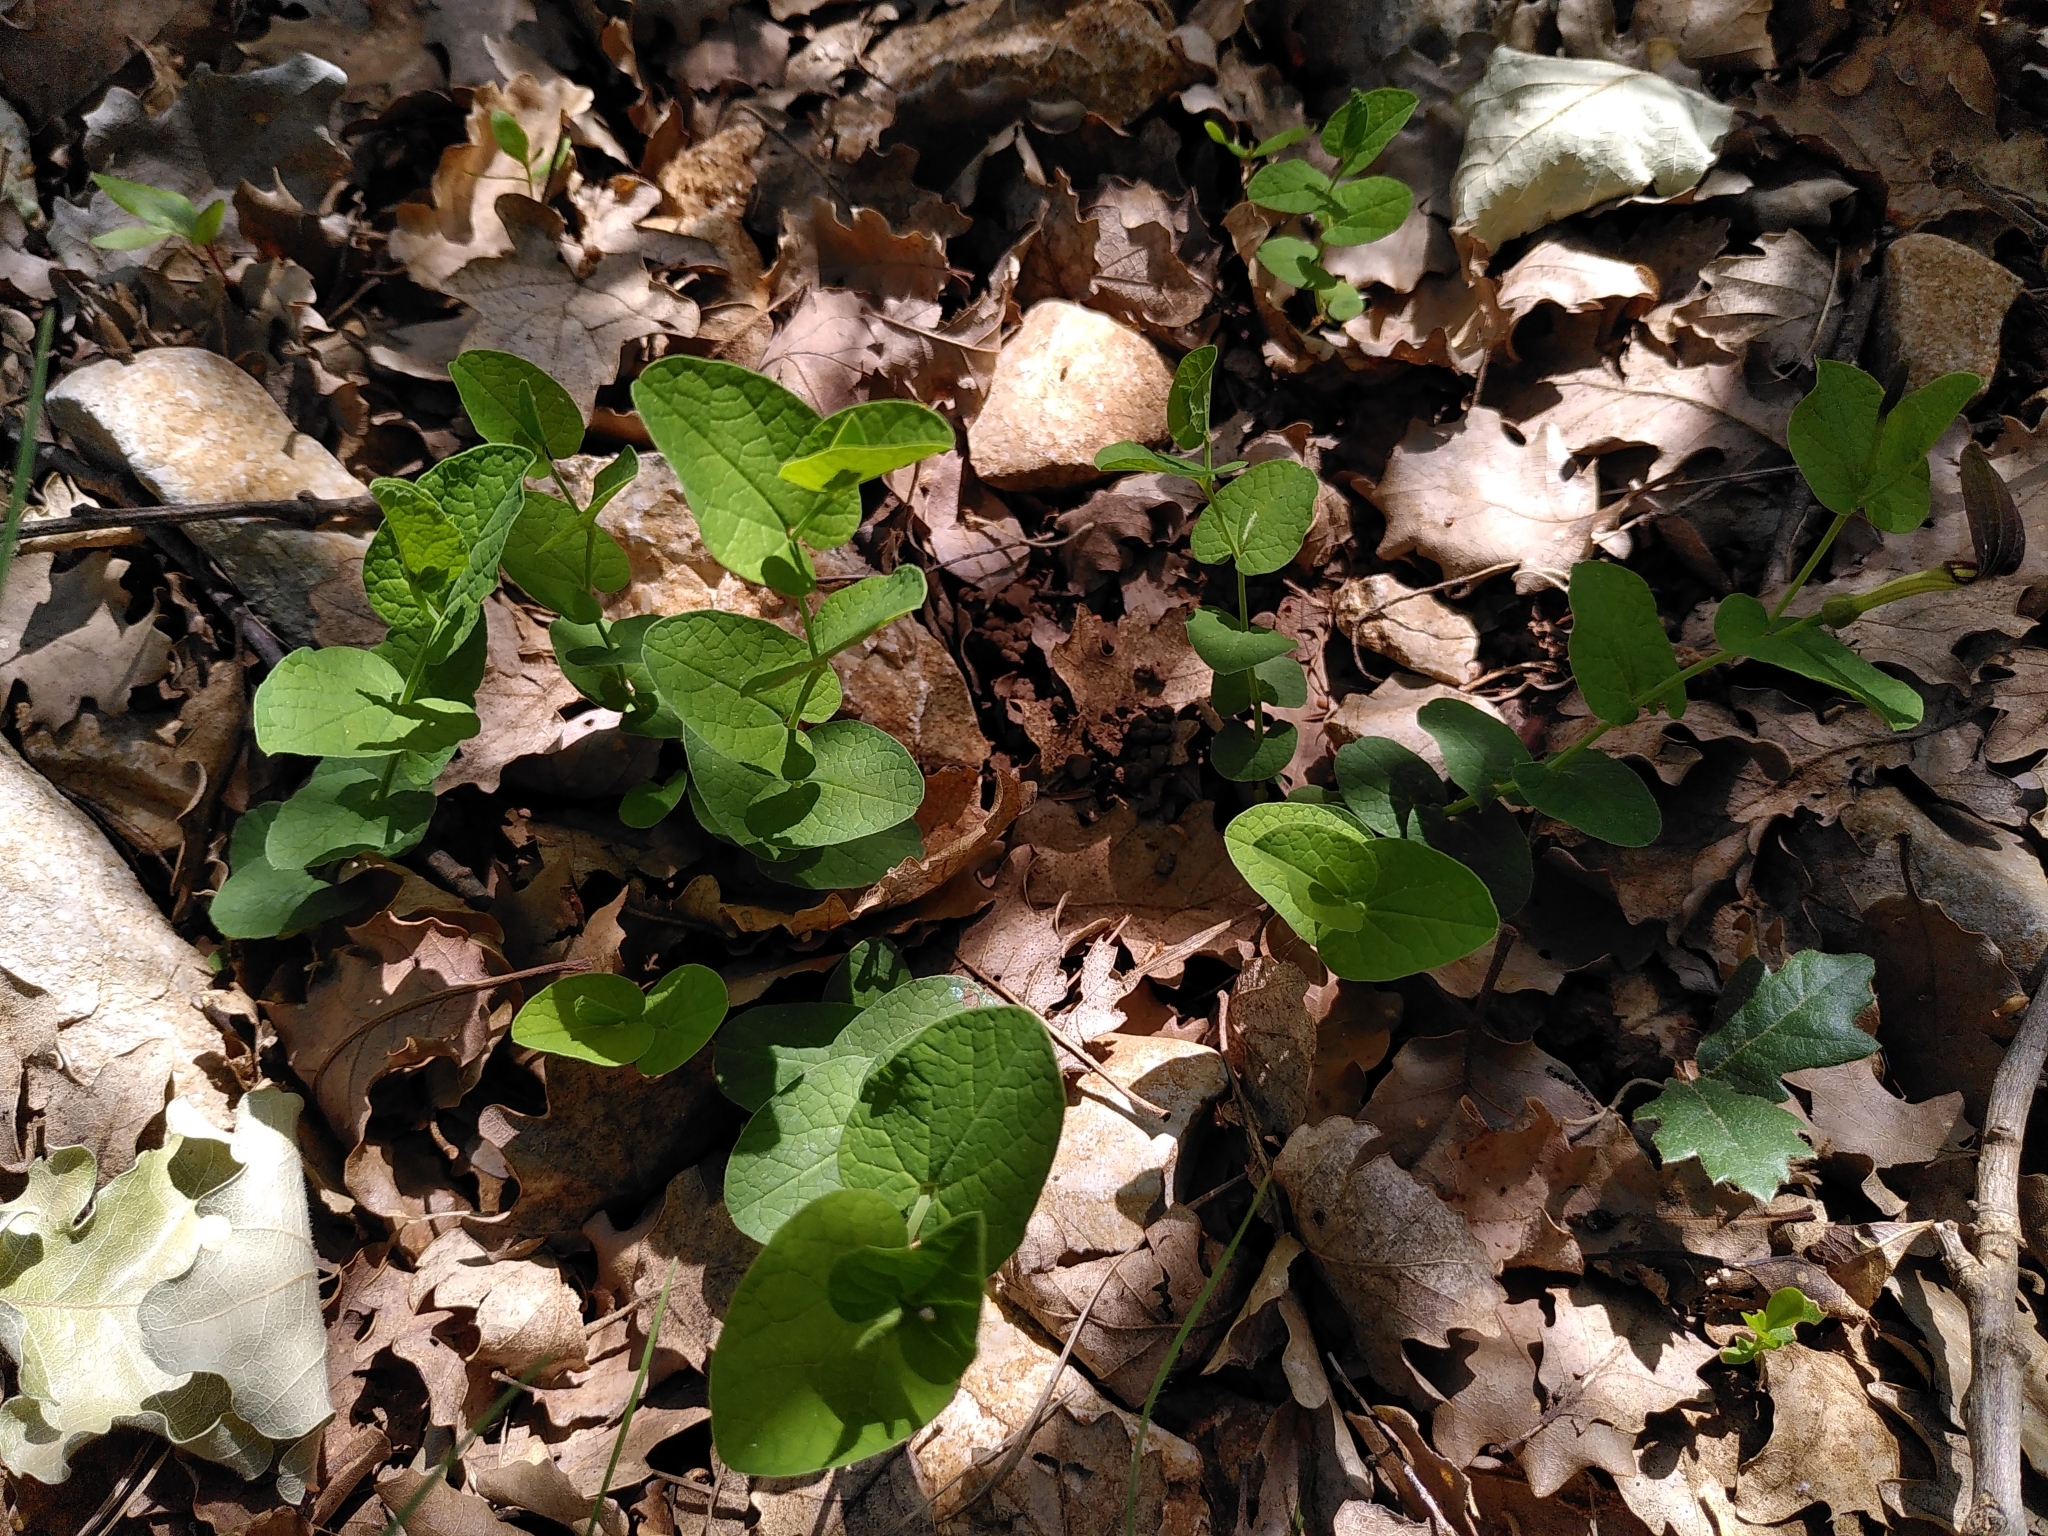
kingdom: Plantae
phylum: Tracheophyta
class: Magnoliopsida
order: Piperales
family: Aristolochiaceae
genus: Aristolochia
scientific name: Aristolochia rotunda
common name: Smearwort
